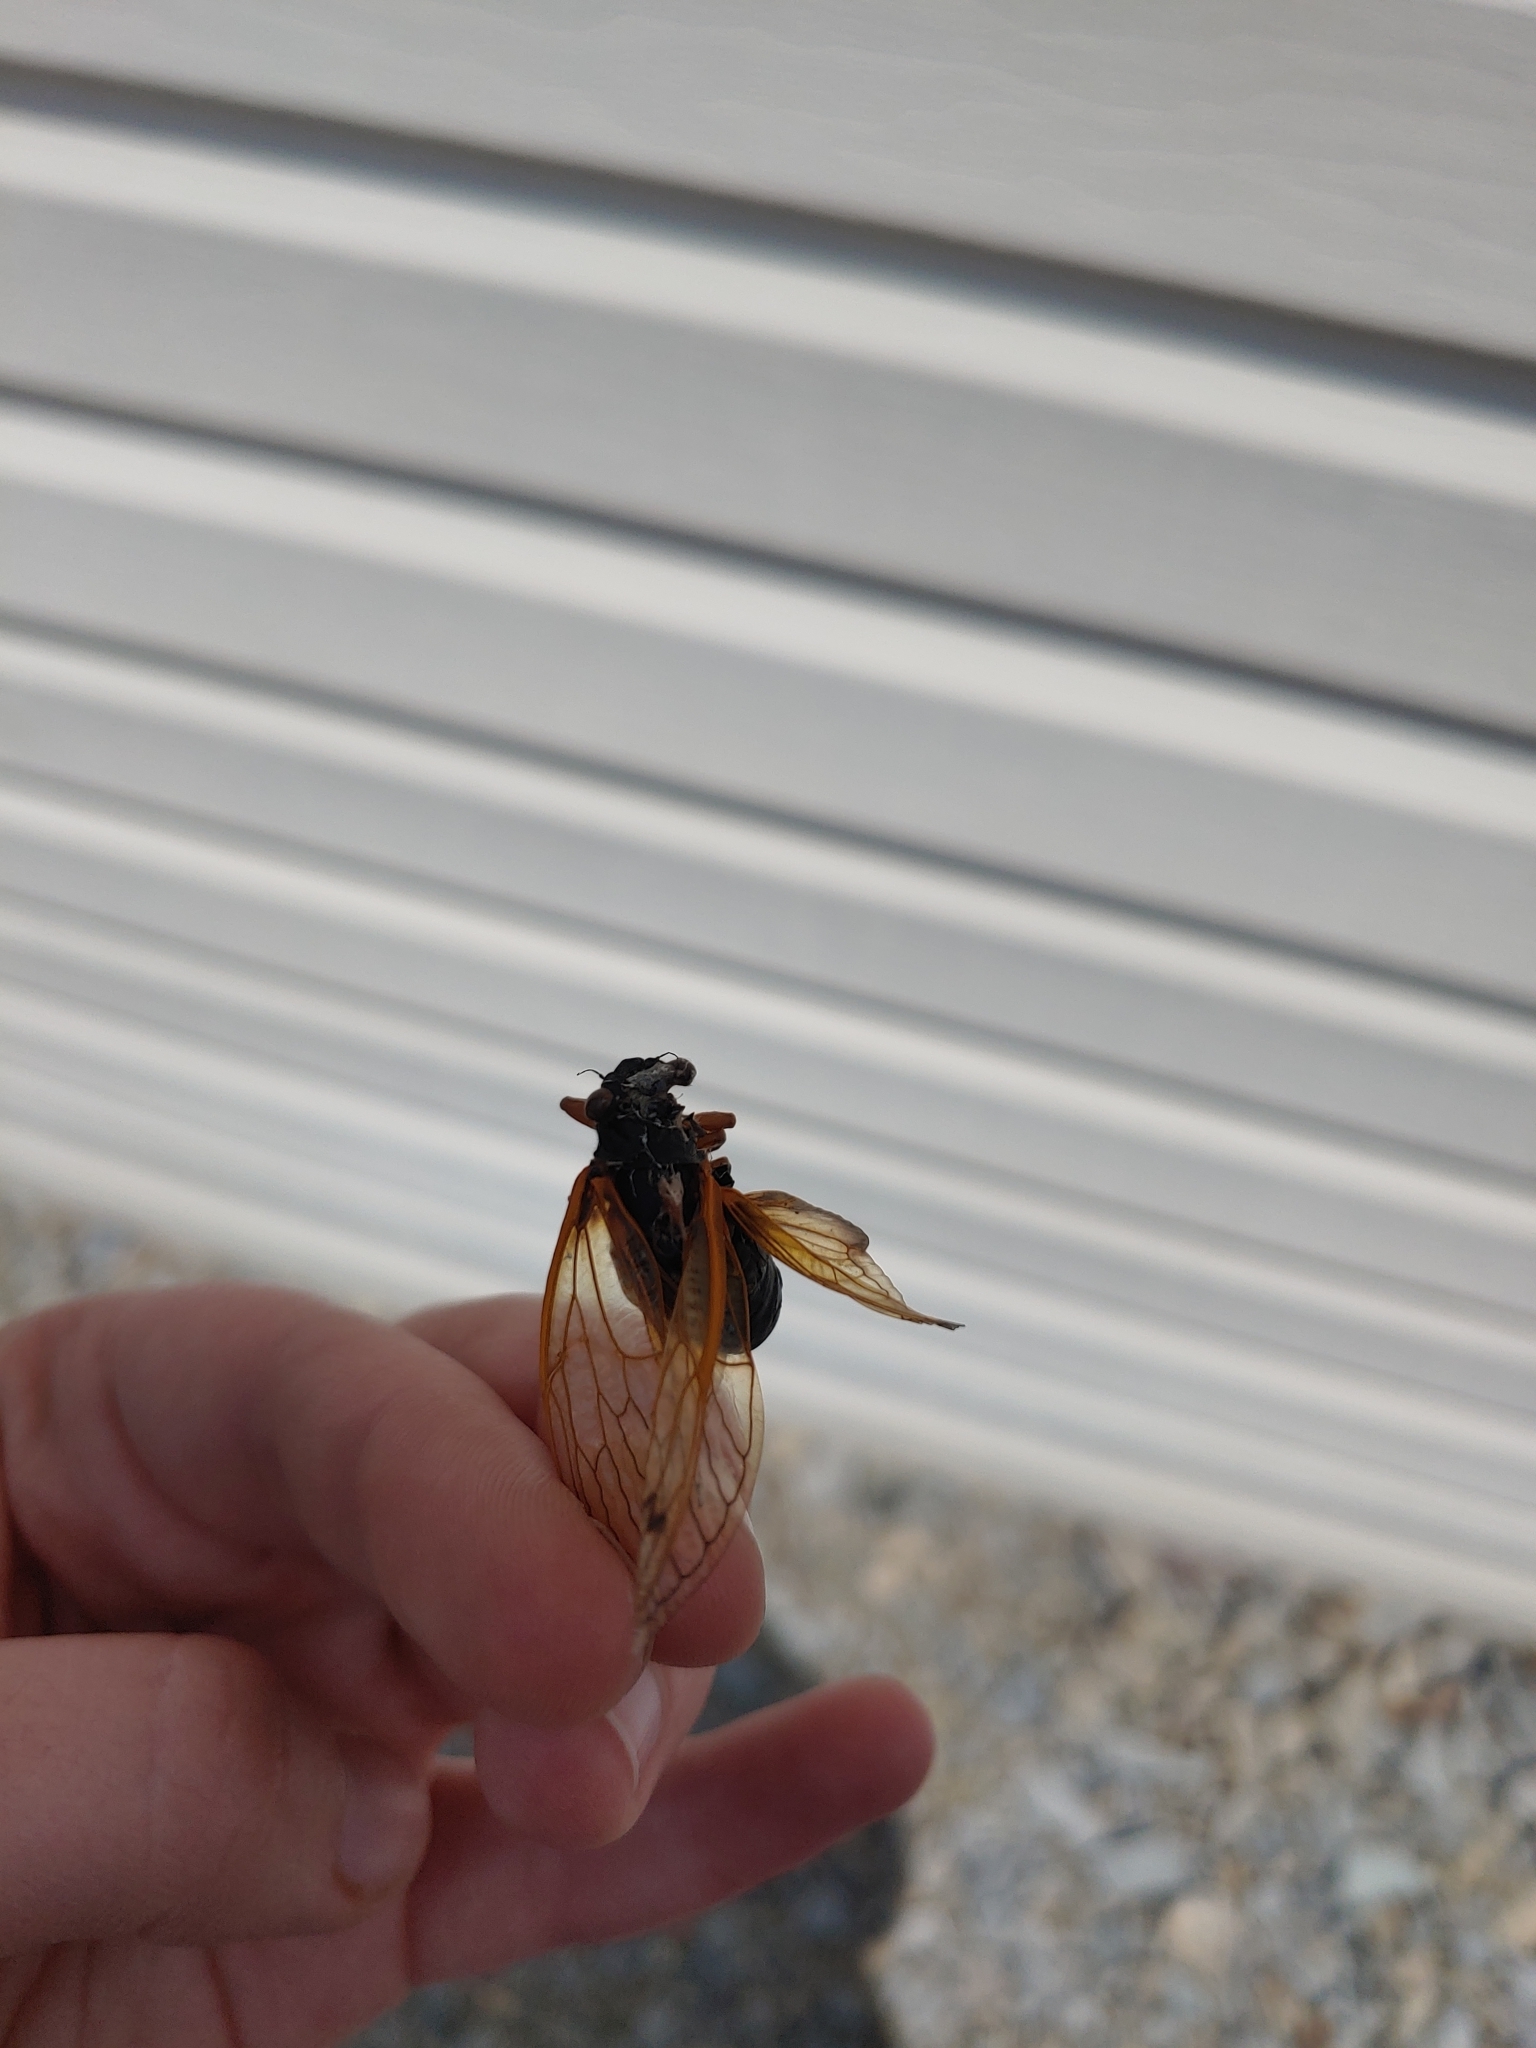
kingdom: Animalia
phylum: Arthropoda
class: Insecta
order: Hemiptera
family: Cicadidae
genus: Magicicada
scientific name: Magicicada
